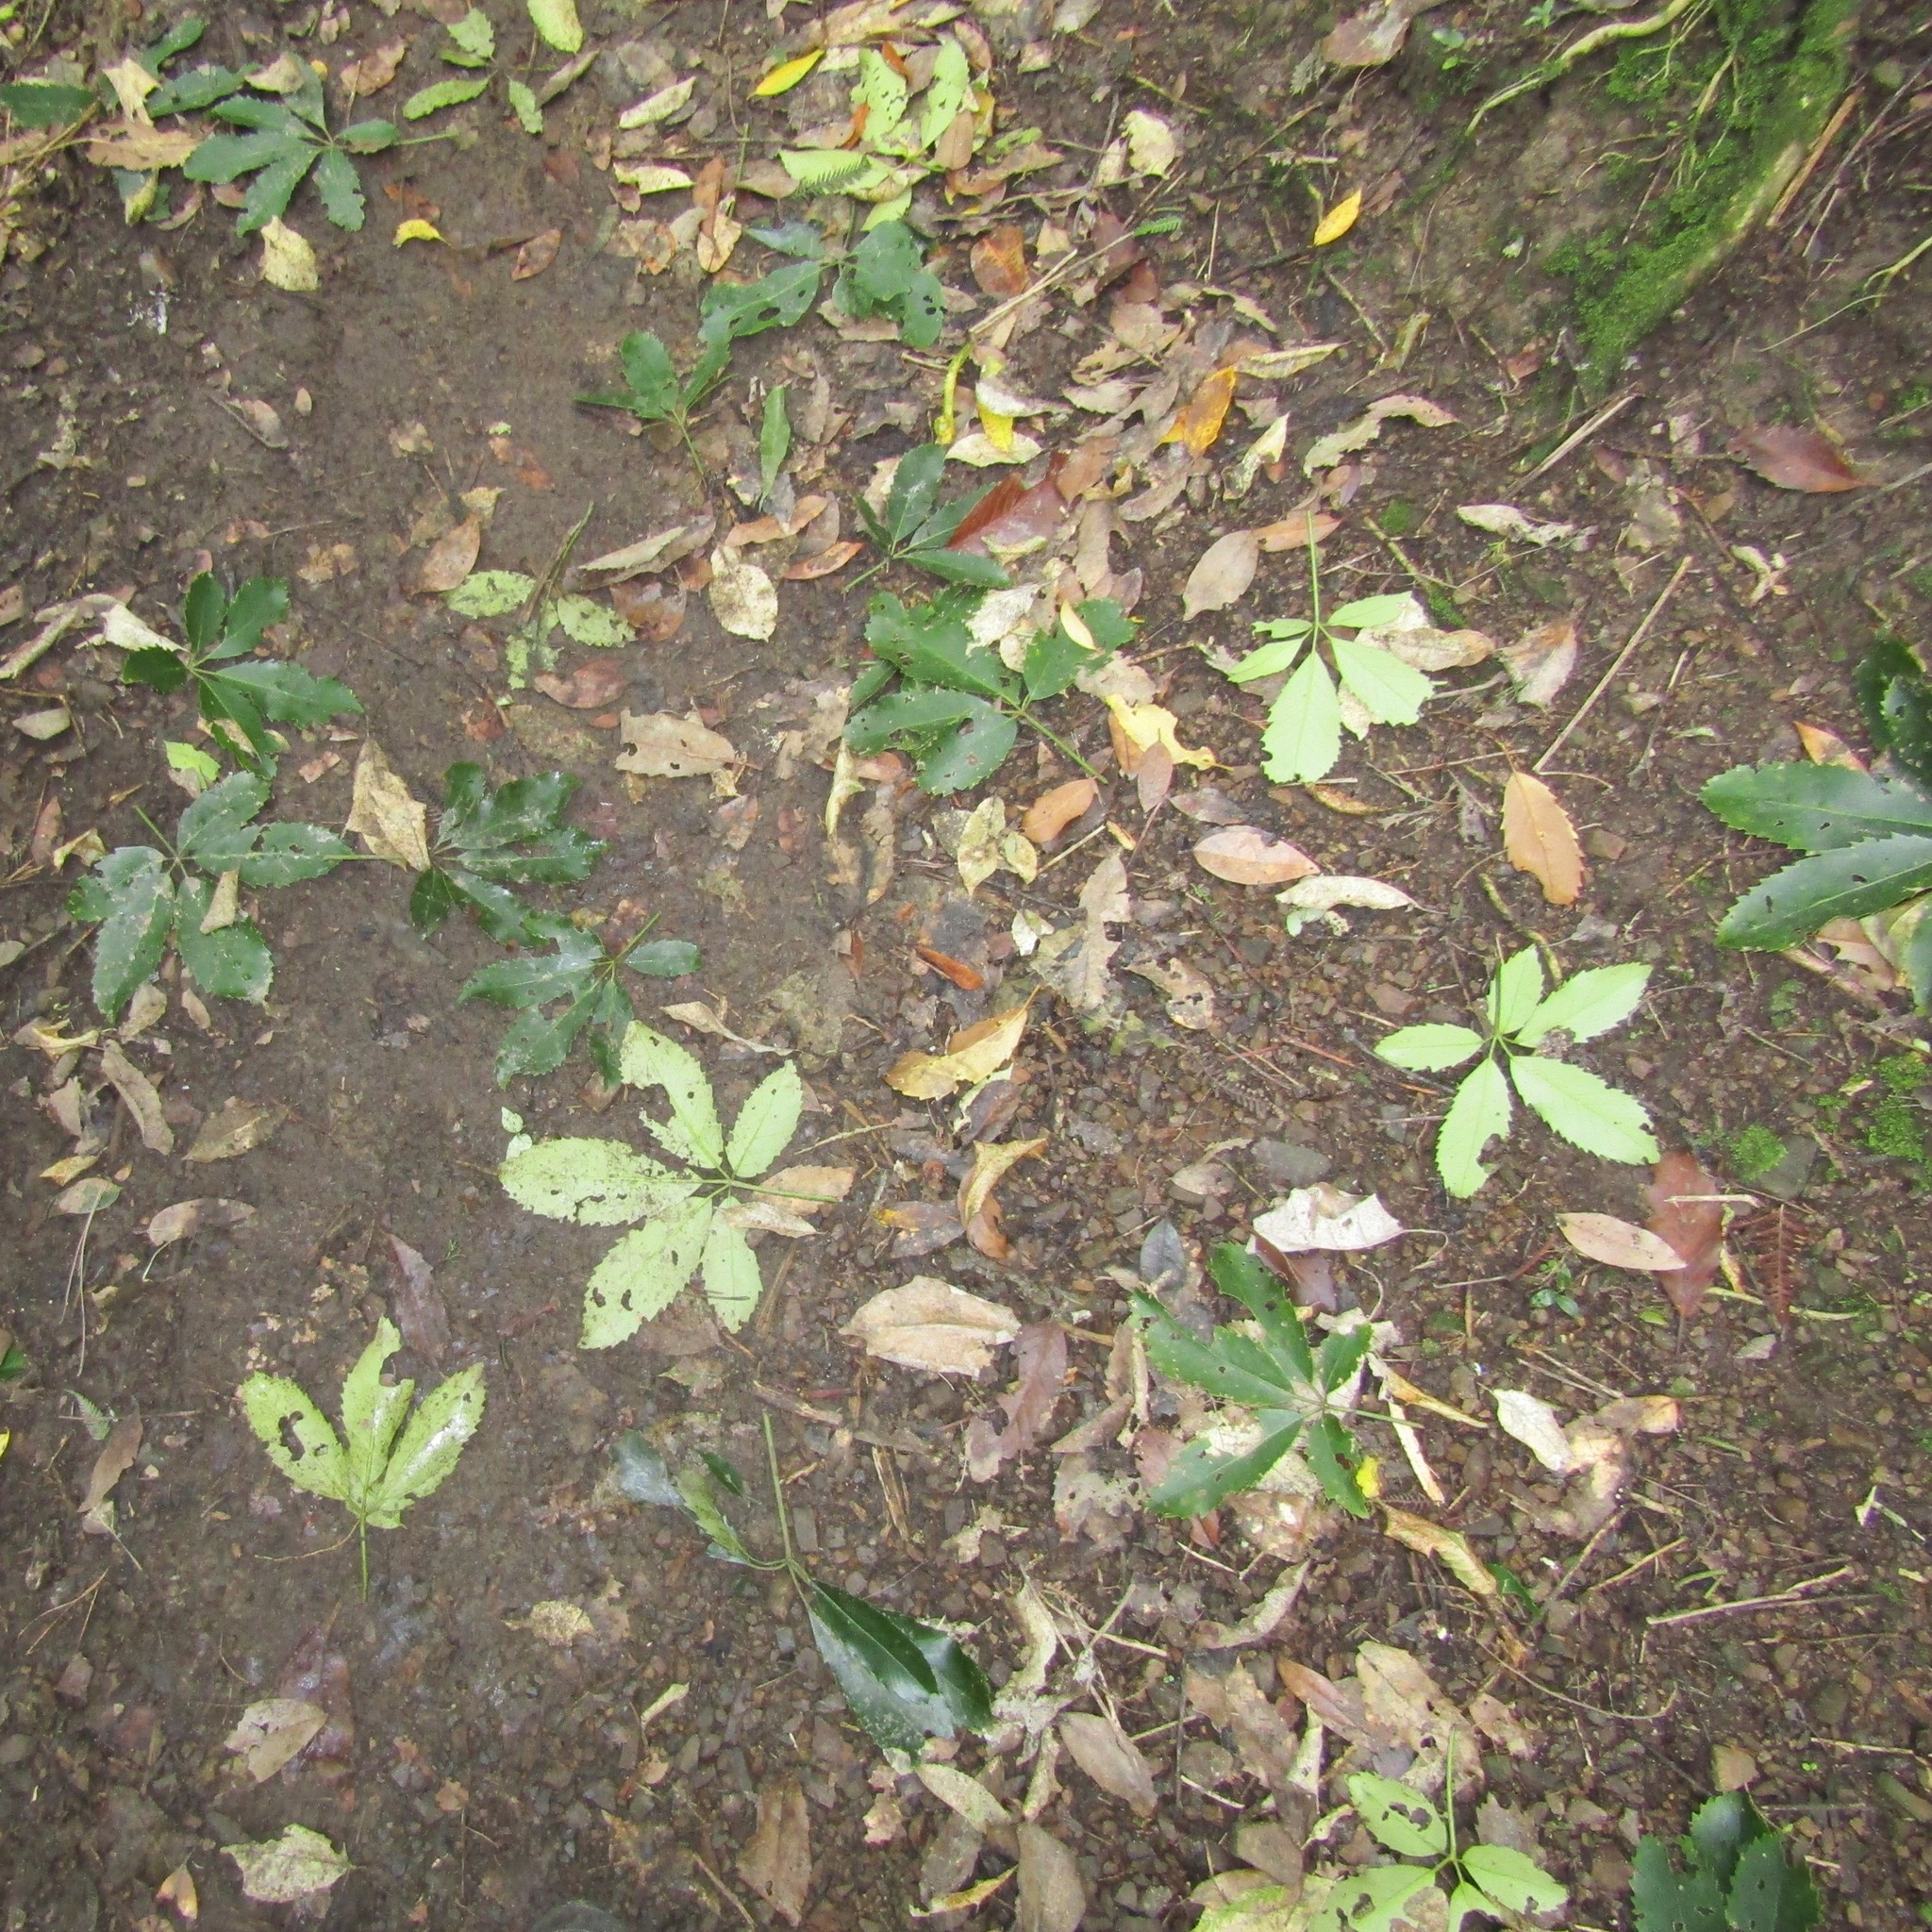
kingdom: Animalia
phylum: Chordata
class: Mammalia
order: Diprotodontia
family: Phalangeridae
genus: Trichosurus
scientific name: Trichosurus vulpecula
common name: Common brushtail
